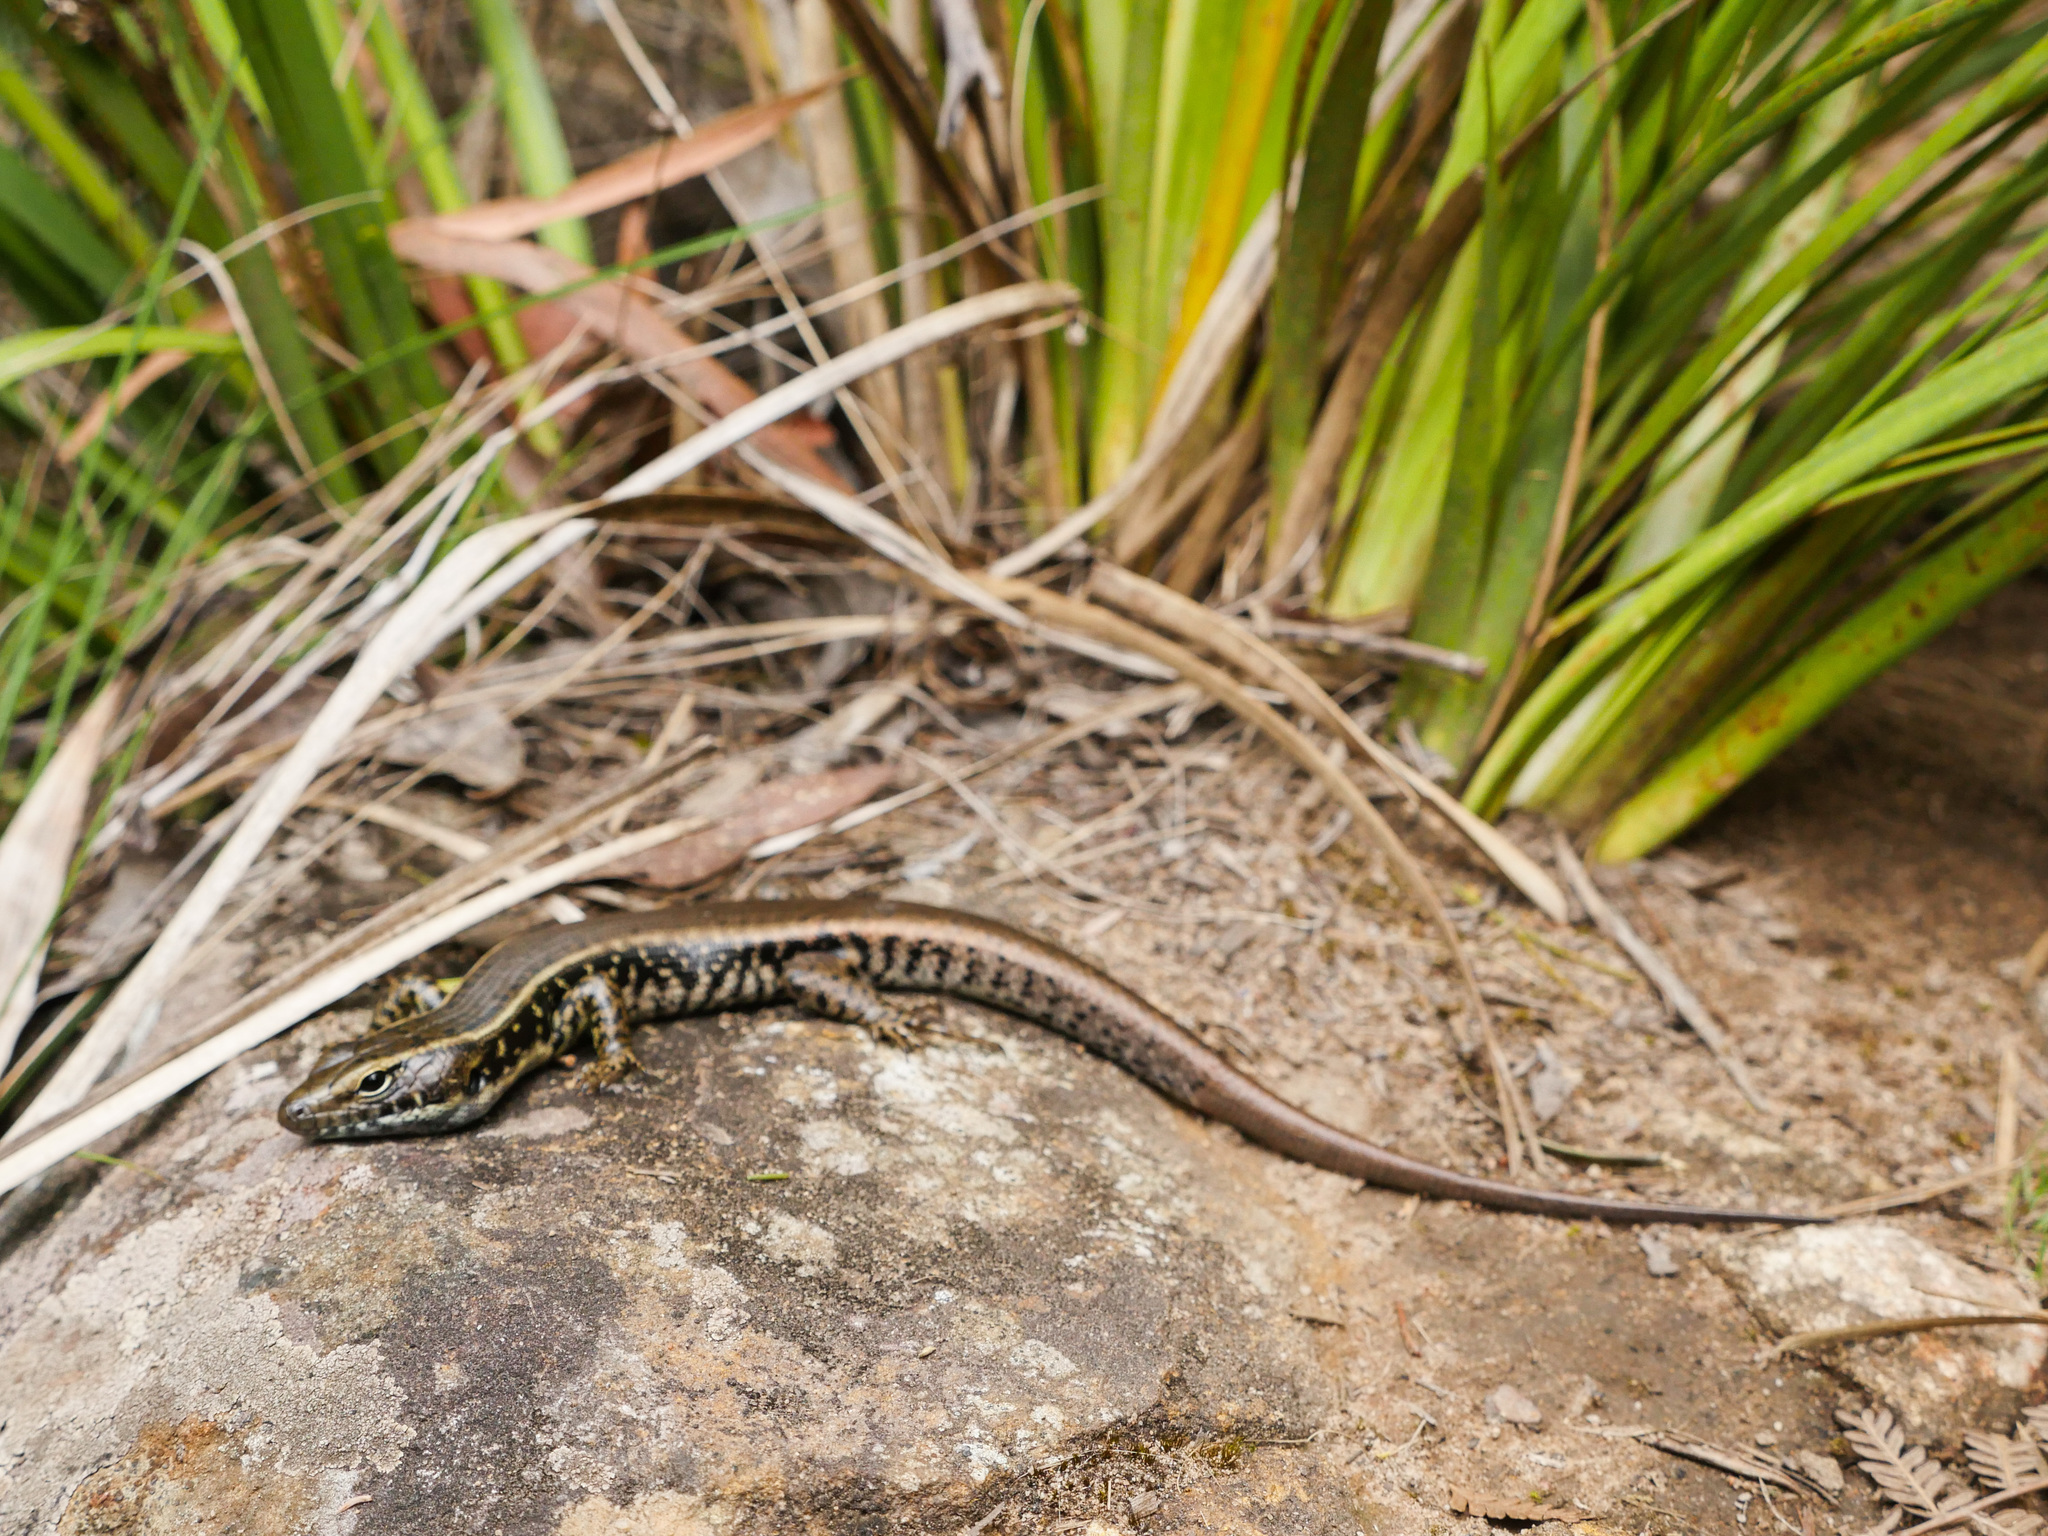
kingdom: Animalia
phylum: Chordata
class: Squamata
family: Scincidae
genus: Eulamprus
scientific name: Eulamprus quoyii
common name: Eastern water skink
